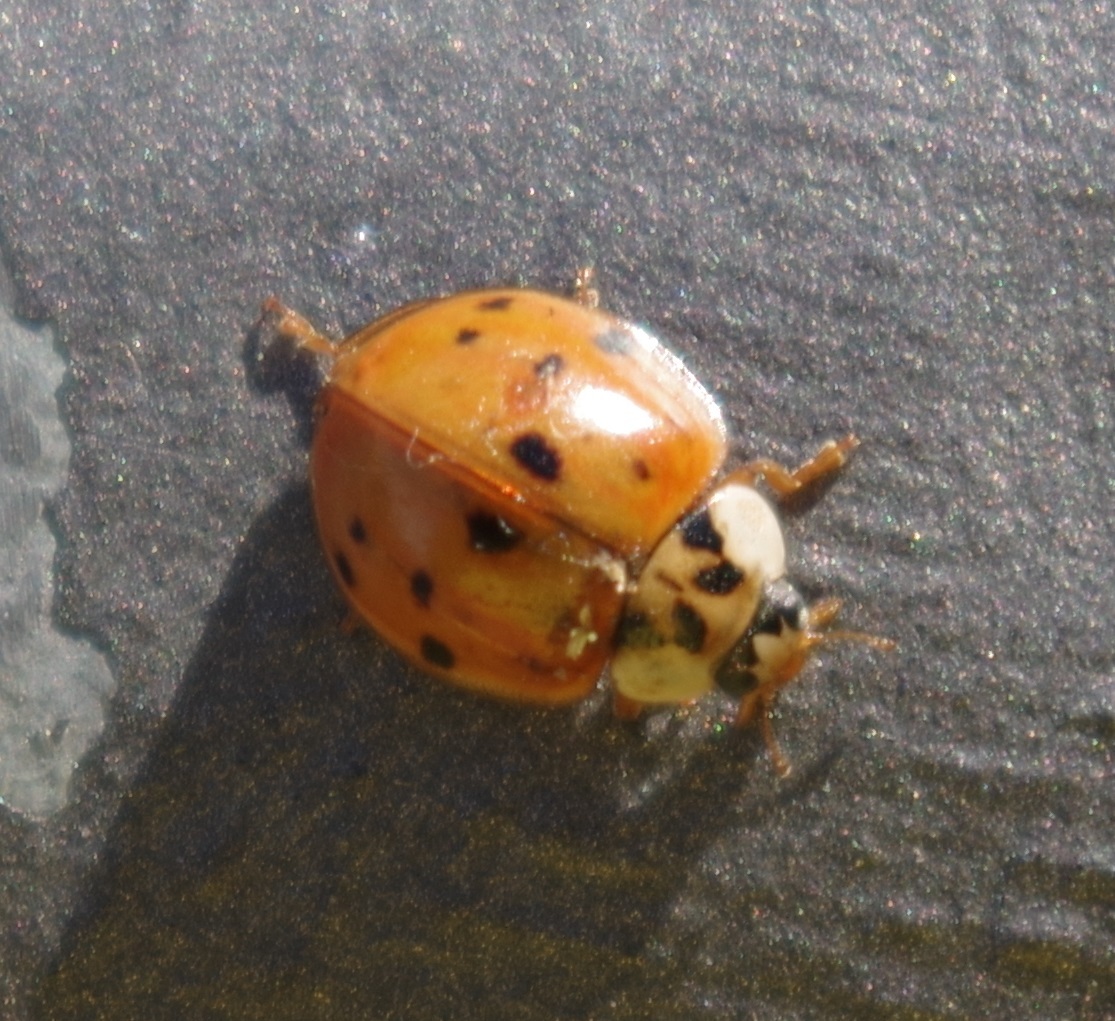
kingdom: Animalia
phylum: Arthropoda
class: Insecta
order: Coleoptera
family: Coccinellidae
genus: Harmonia
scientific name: Harmonia axyridis
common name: Harlequin ladybird
